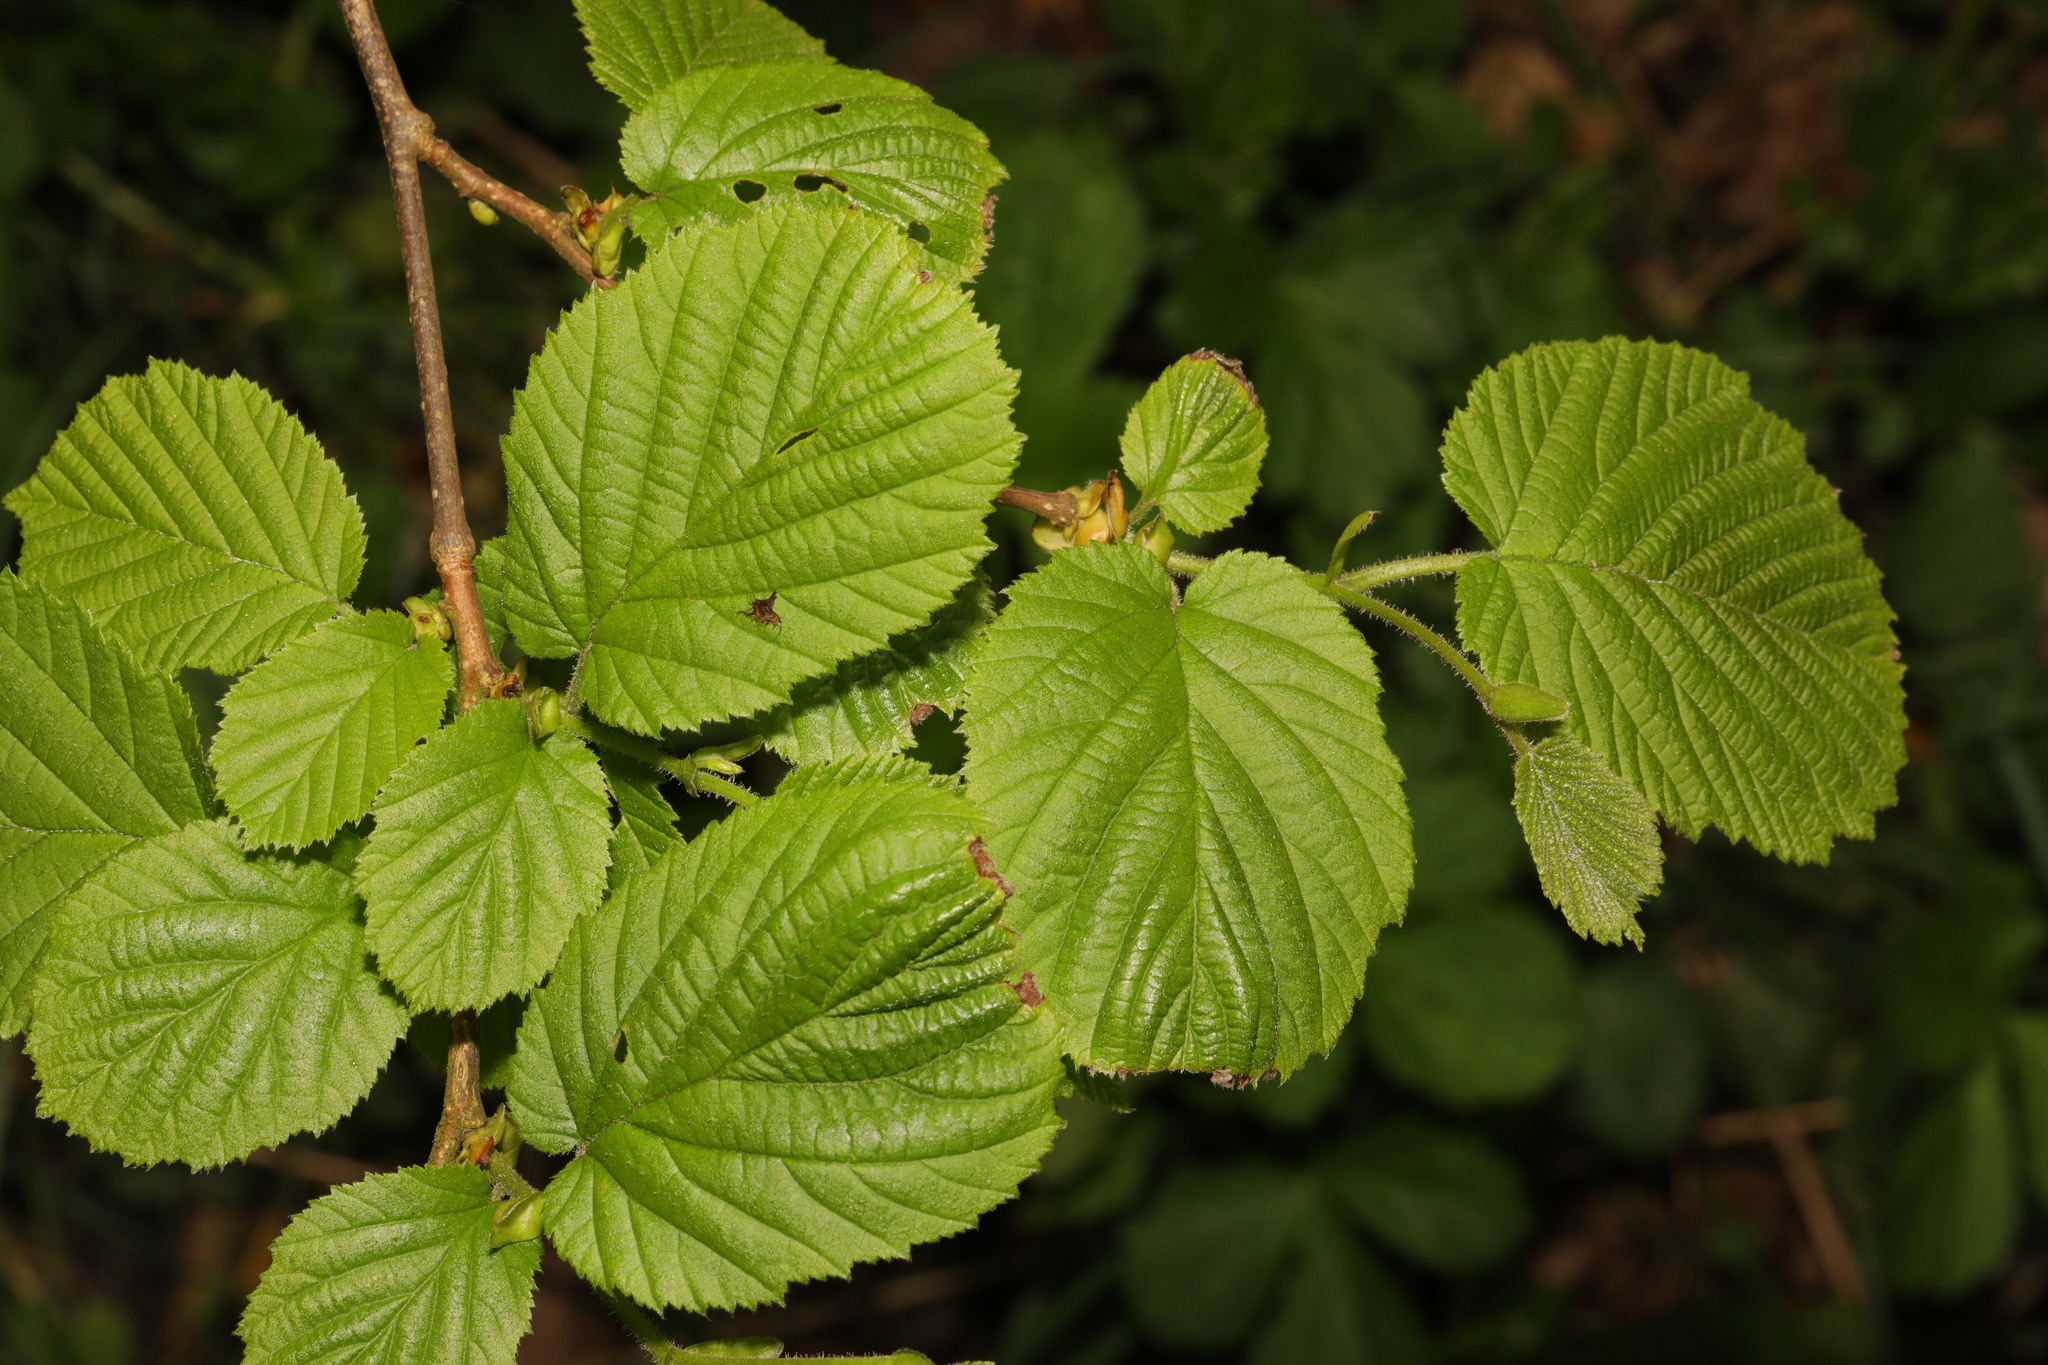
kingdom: Plantae
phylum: Tracheophyta
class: Magnoliopsida
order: Fagales
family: Betulaceae
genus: Corylus
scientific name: Corylus avellana
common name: European hazel
